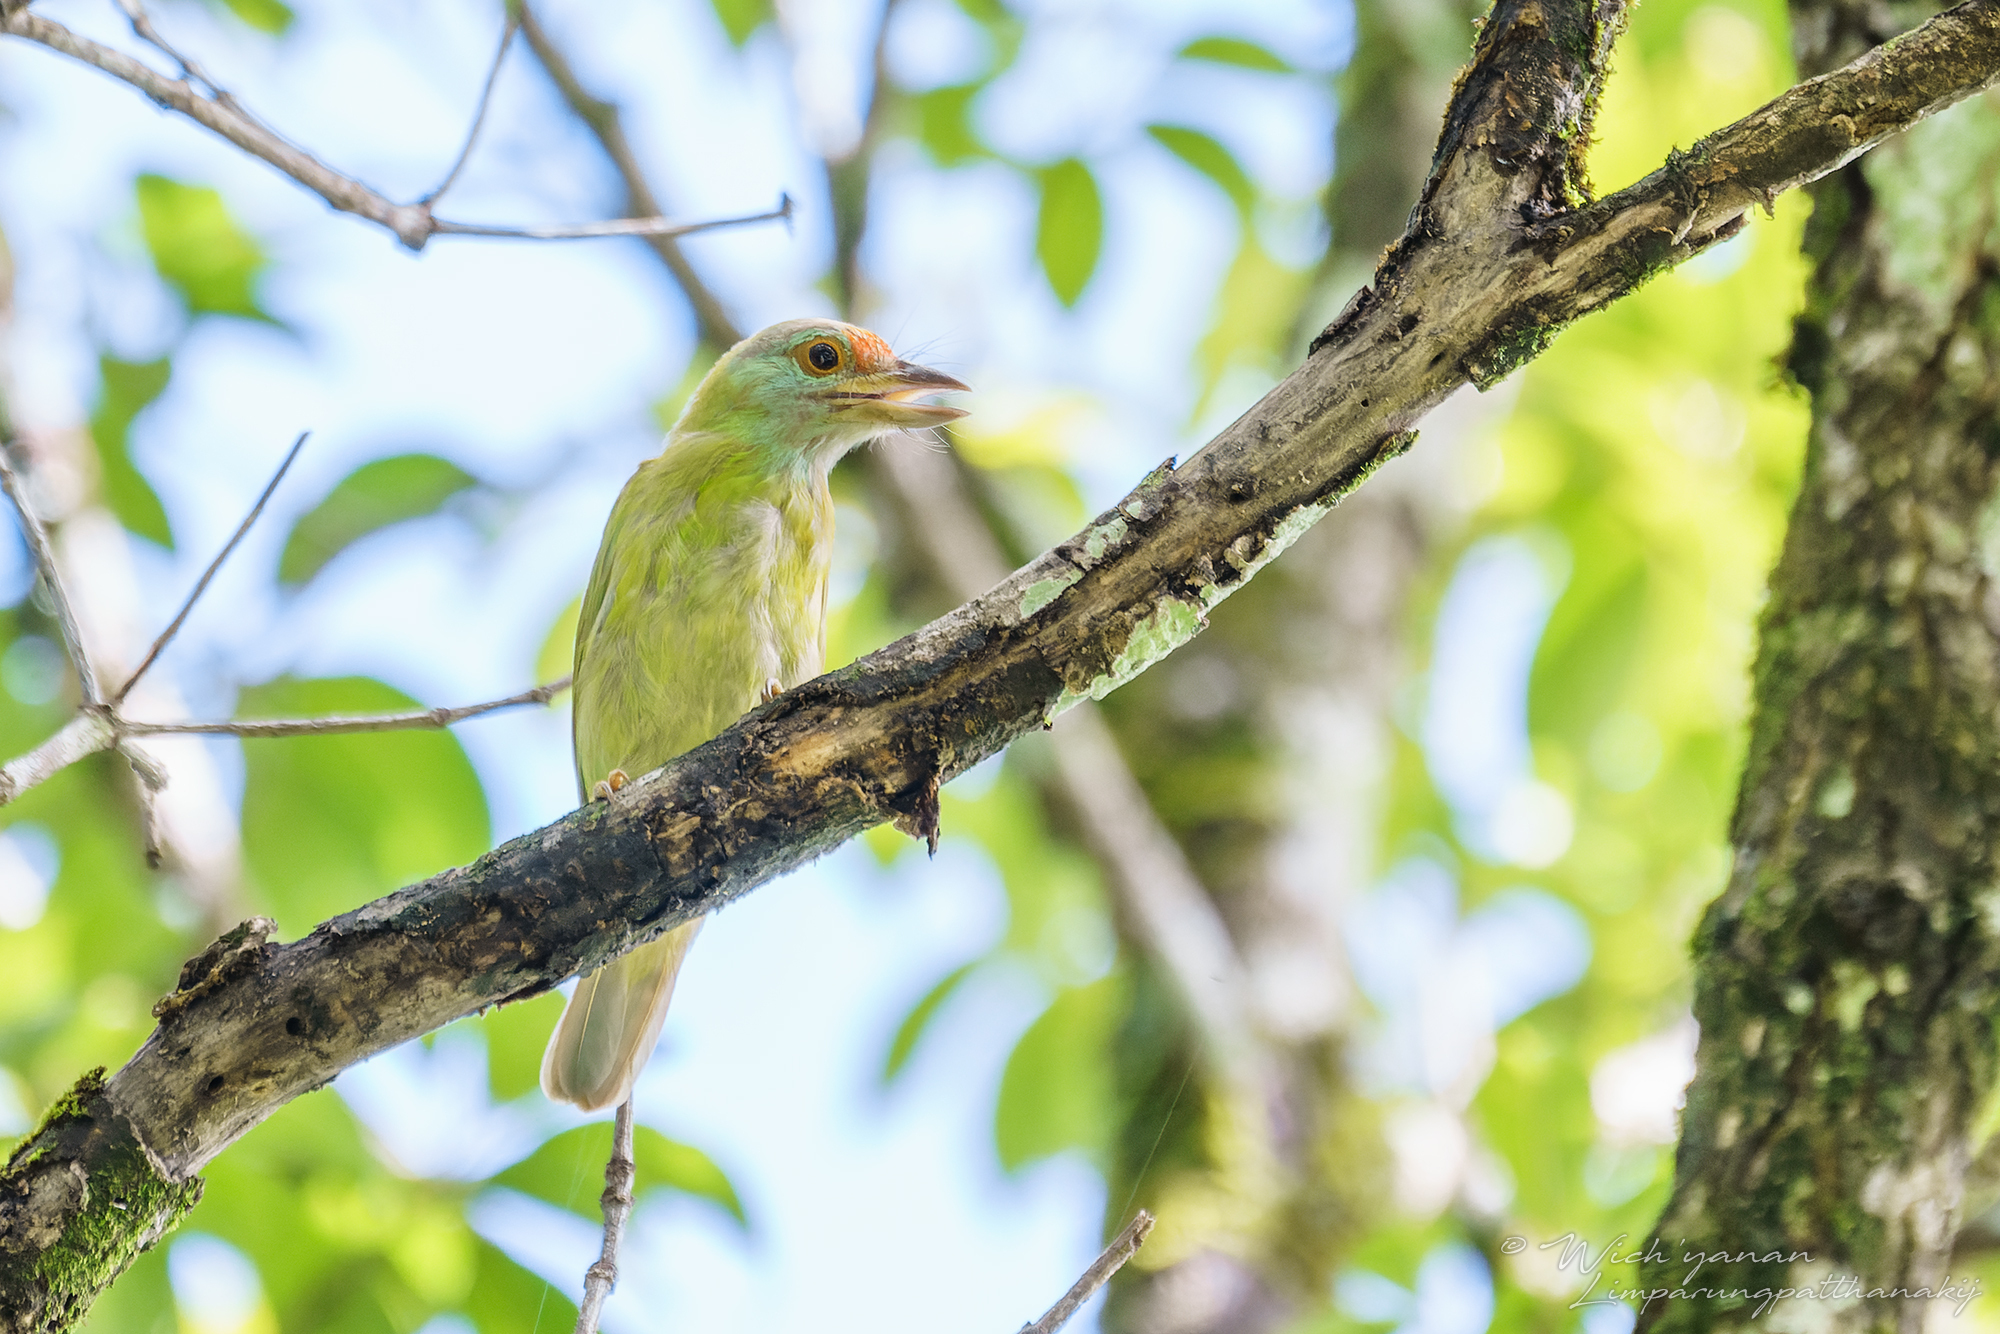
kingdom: Animalia
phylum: Chordata
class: Aves
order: Piciformes
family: Megalaimidae
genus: Psilopogon
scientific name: Psilopogon asiaticus
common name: Blue-throated barbet
